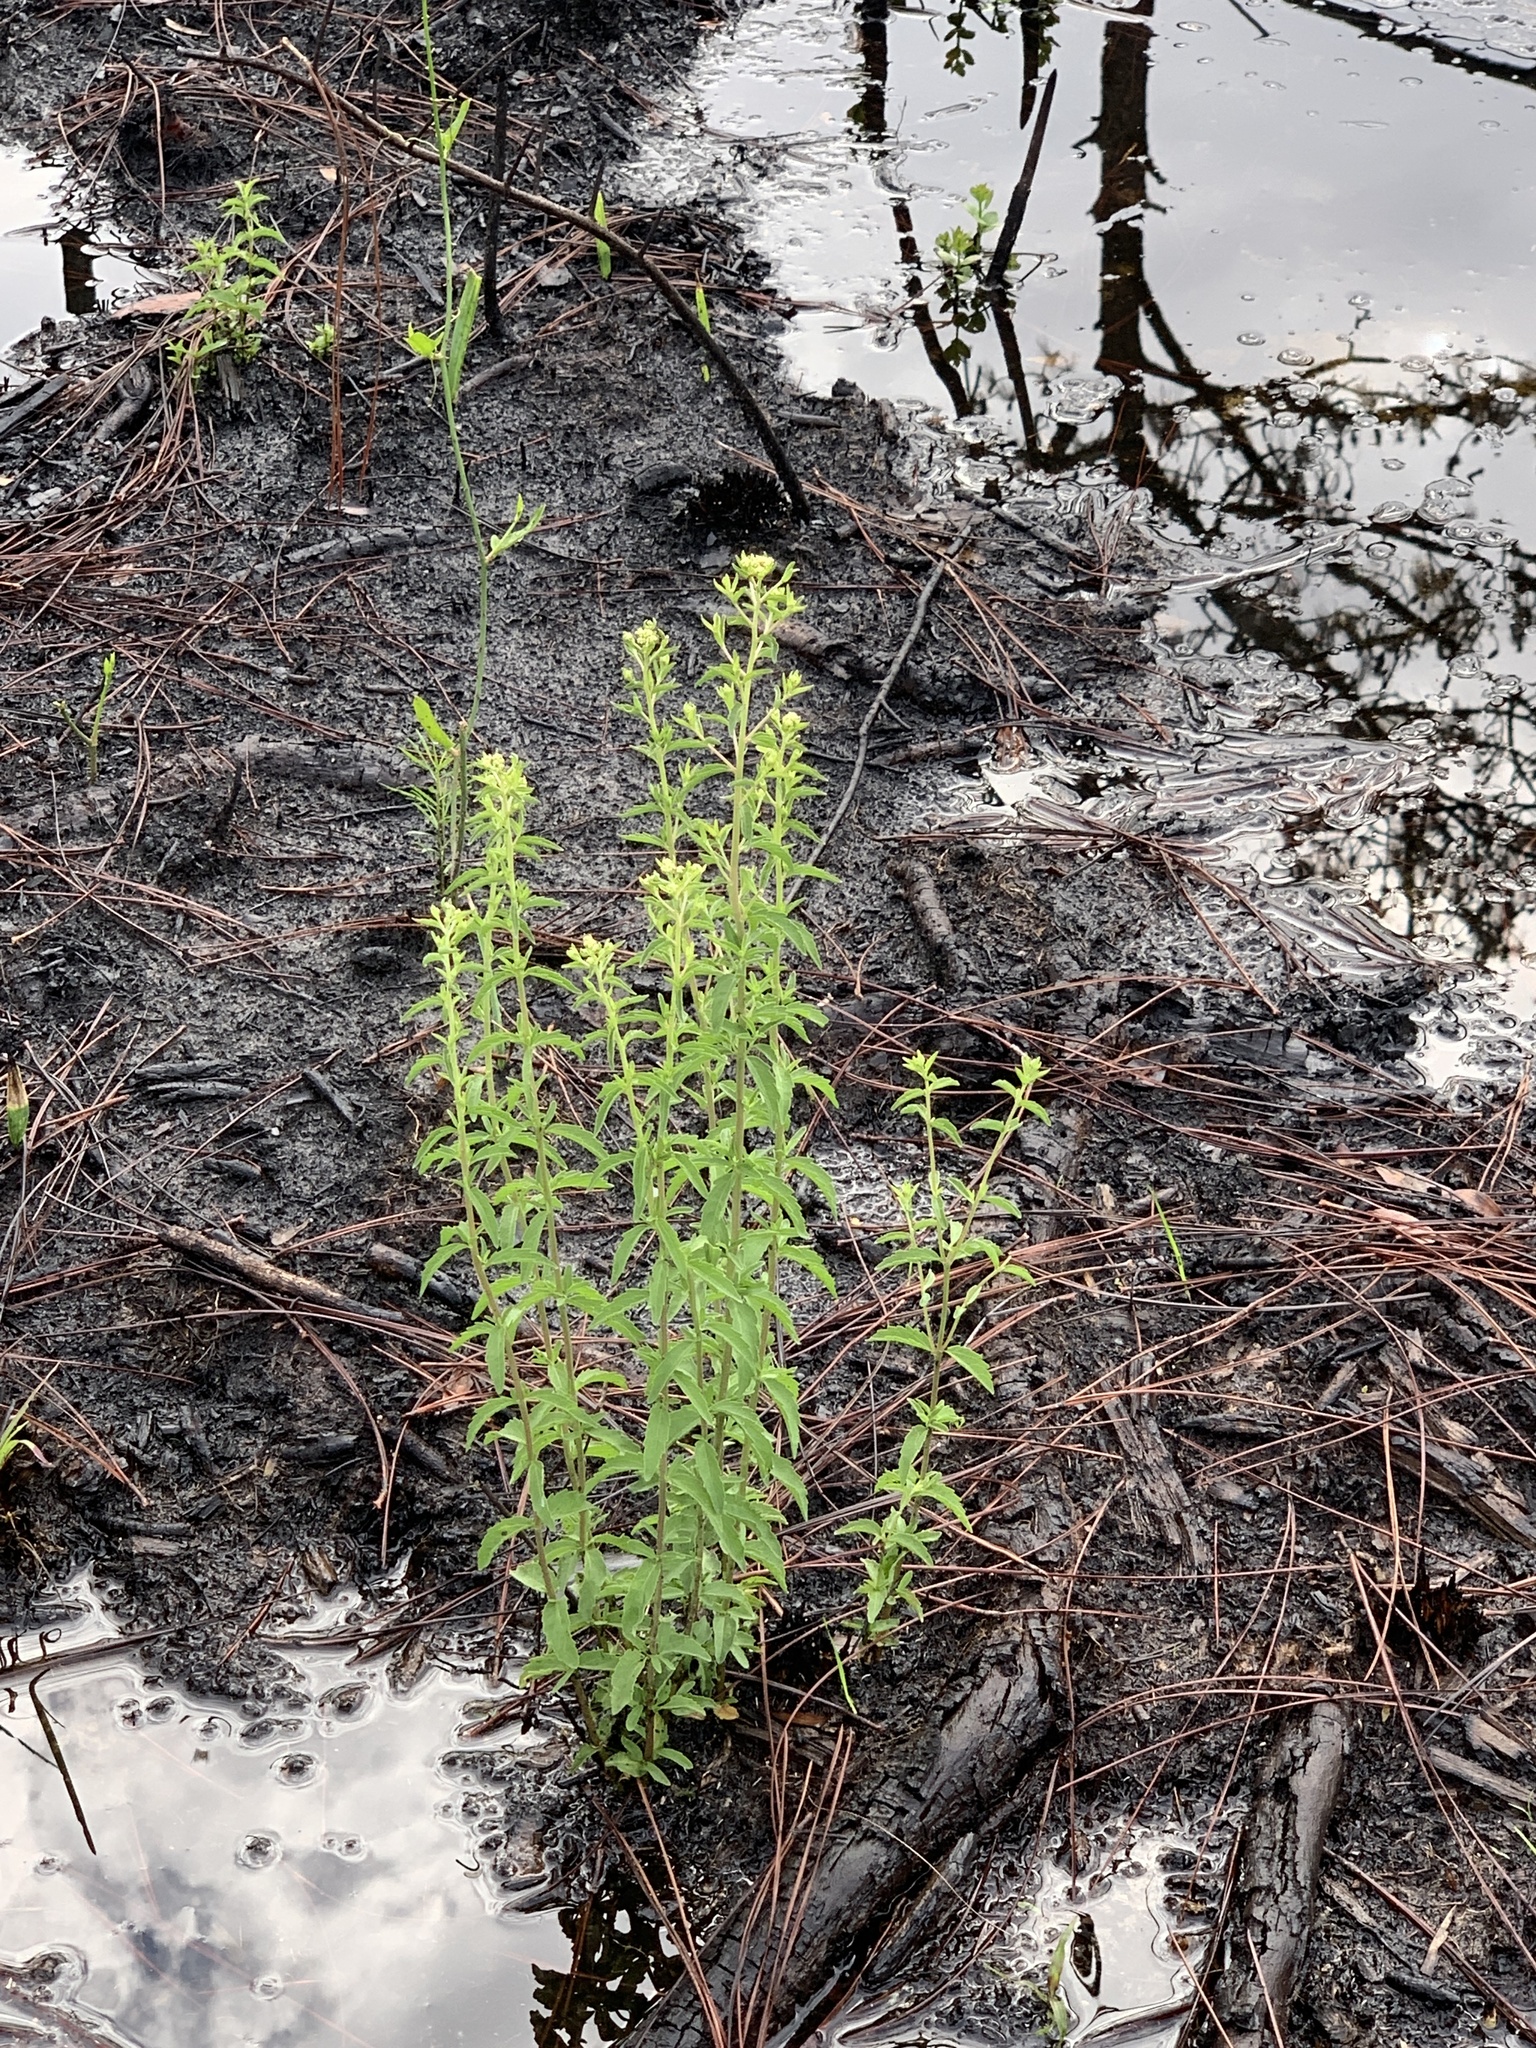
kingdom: Plantae
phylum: Tracheophyta
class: Magnoliopsida
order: Asterales
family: Asteraceae
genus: Eupatorium
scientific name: Eupatorium mohrii
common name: Mohr's thoroughwort
